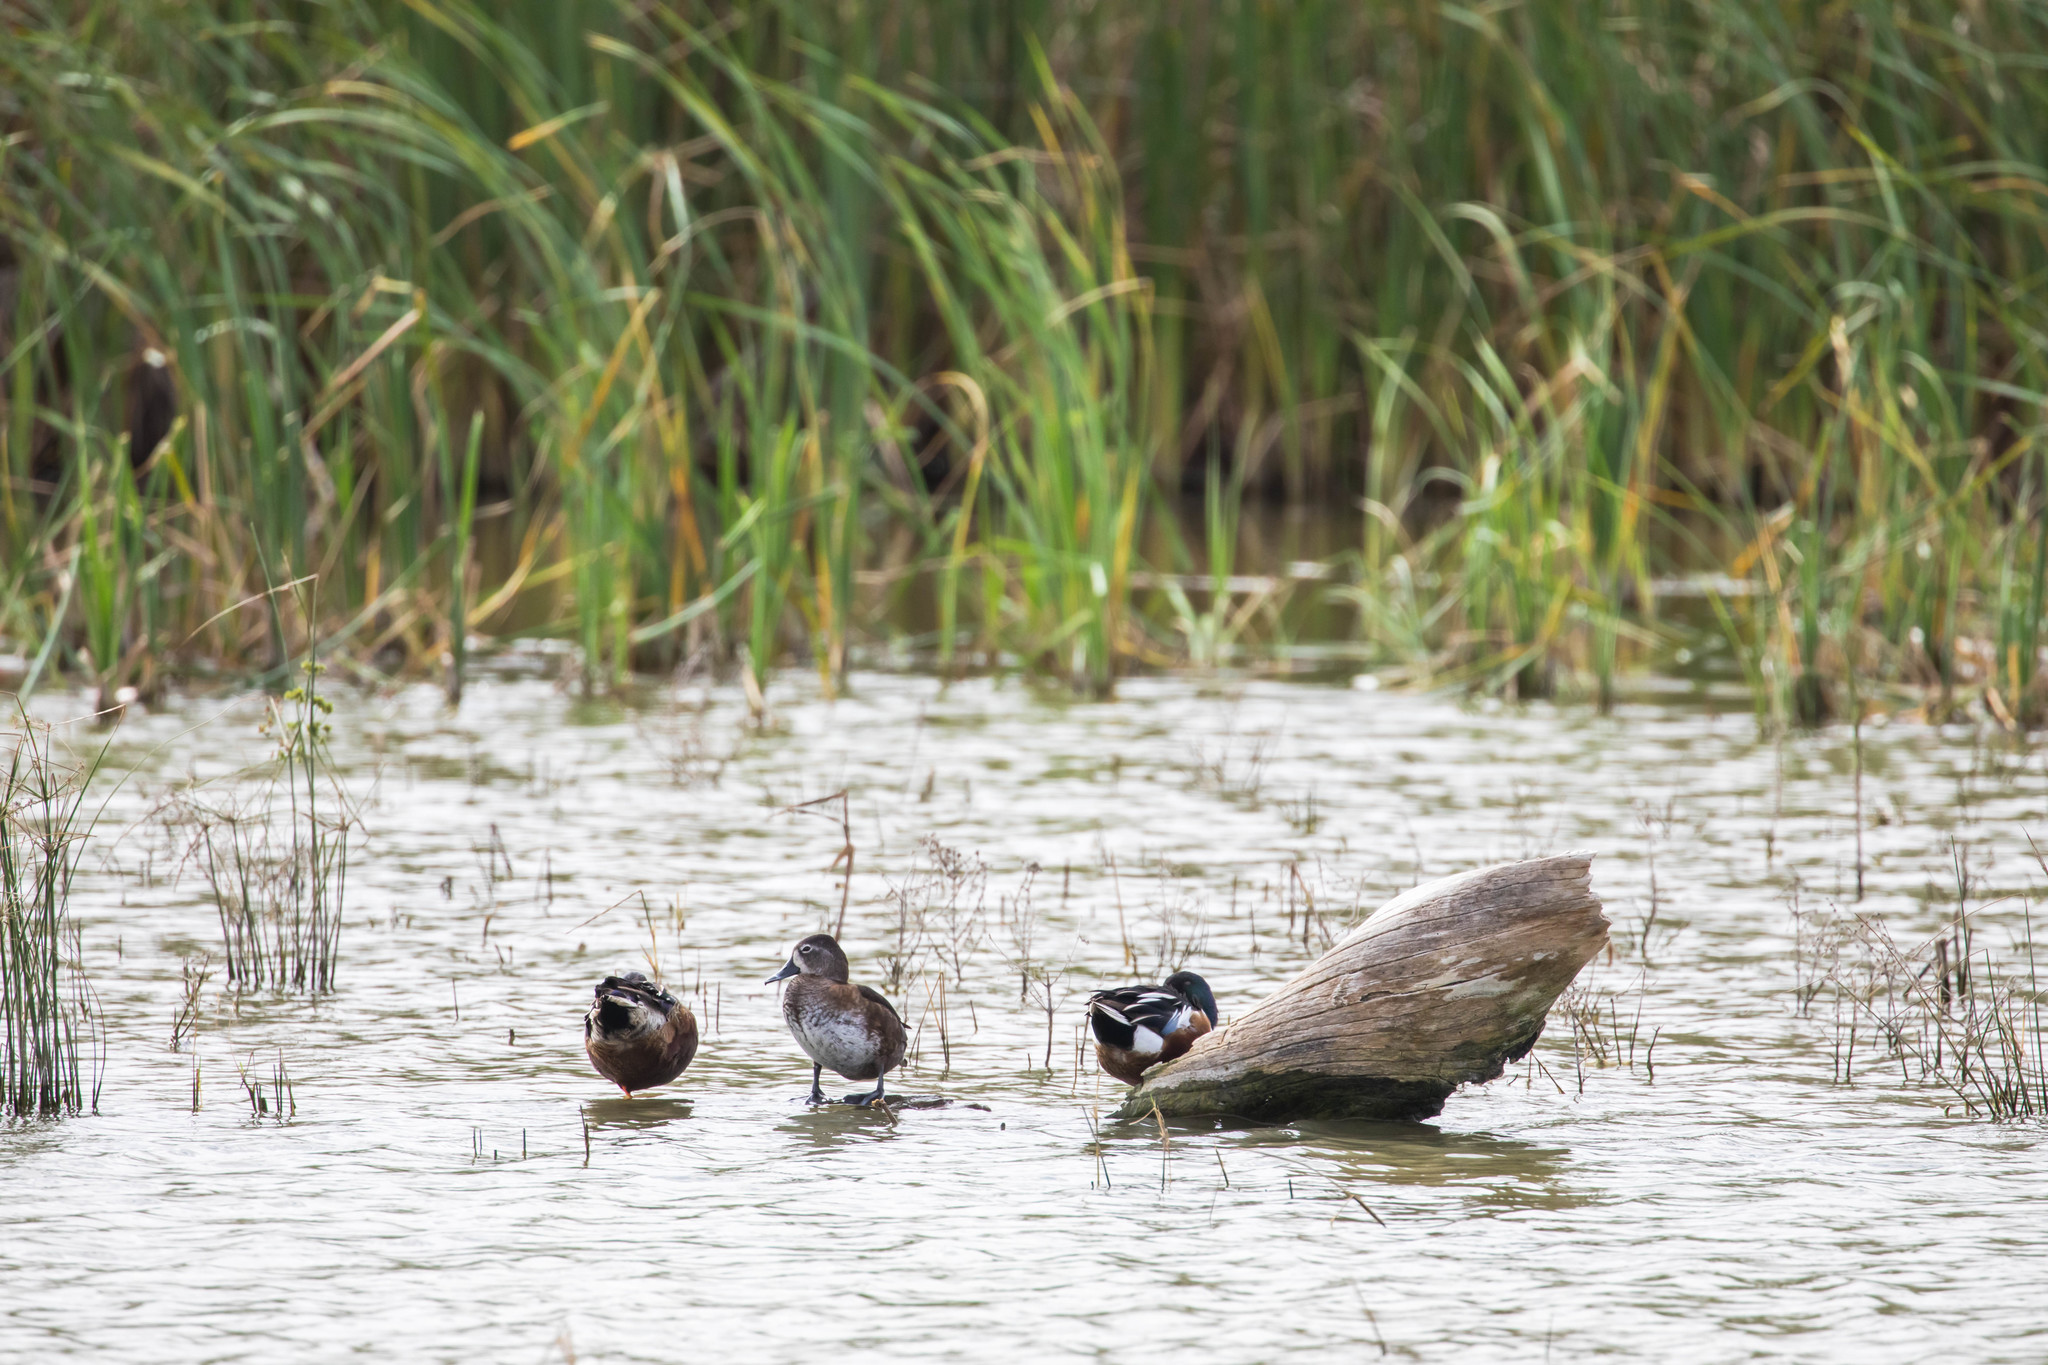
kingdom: Animalia
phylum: Chordata
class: Aves
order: Anseriformes
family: Anatidae
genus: Aythya
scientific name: Aythya collaris
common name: Ring-necked duck
